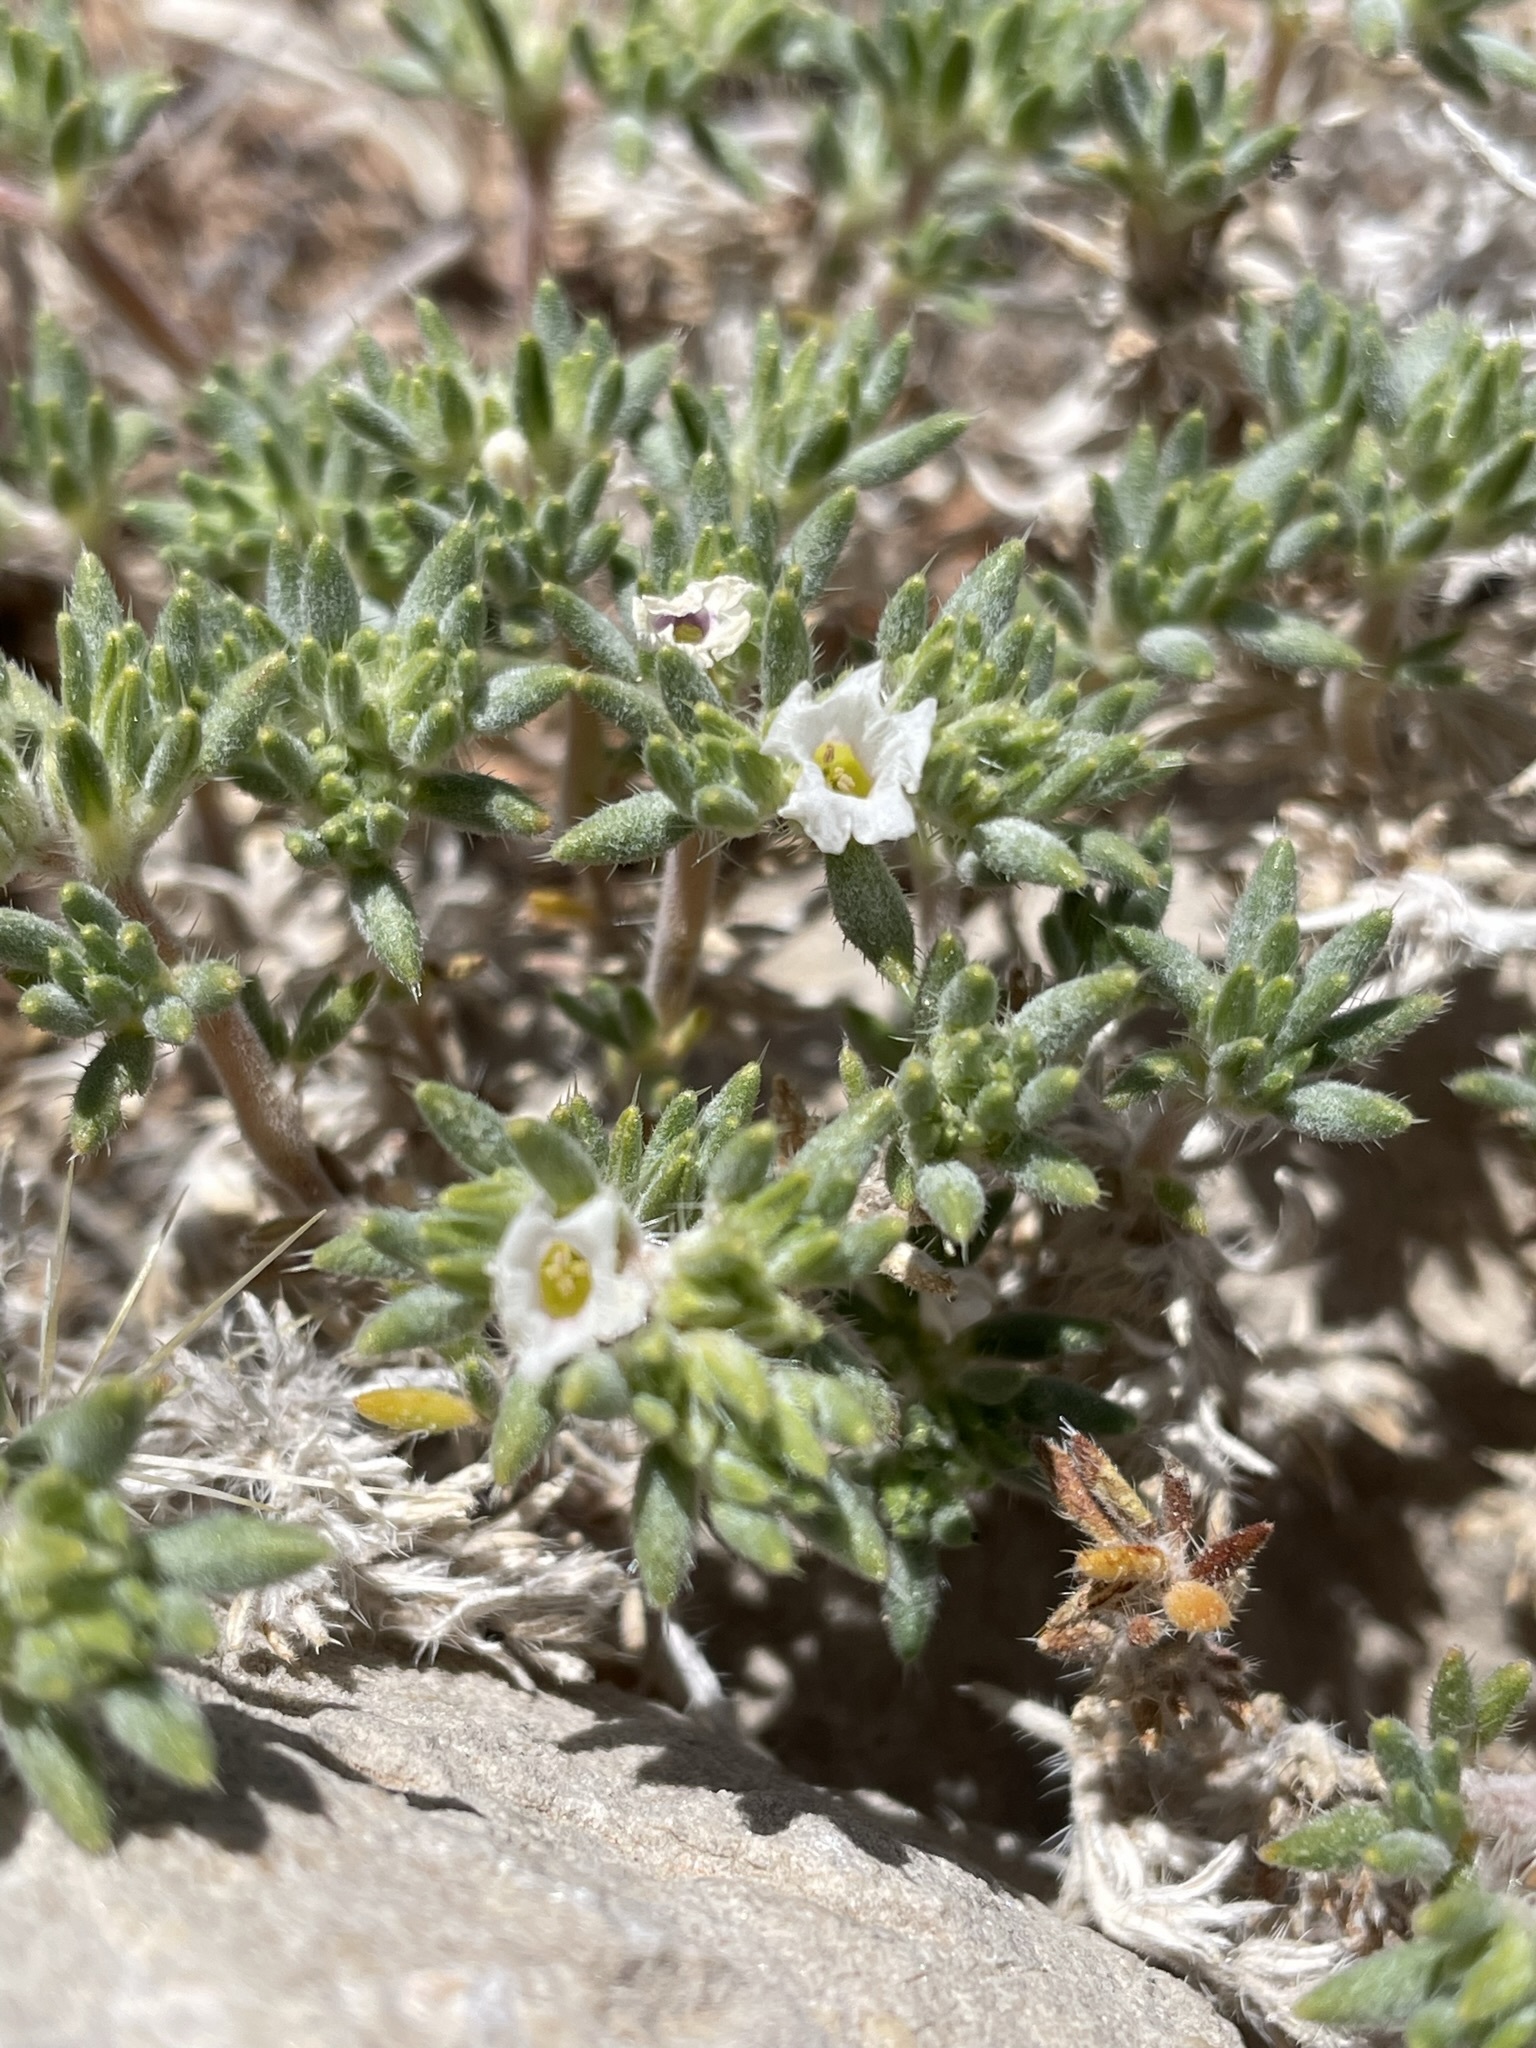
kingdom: Plantae
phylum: Tracheophyta
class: Magnoliopsida
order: Boraginales
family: Ehretiaceae
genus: Tiquilia
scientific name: Tiquilia latior
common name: Matted tiquilia
